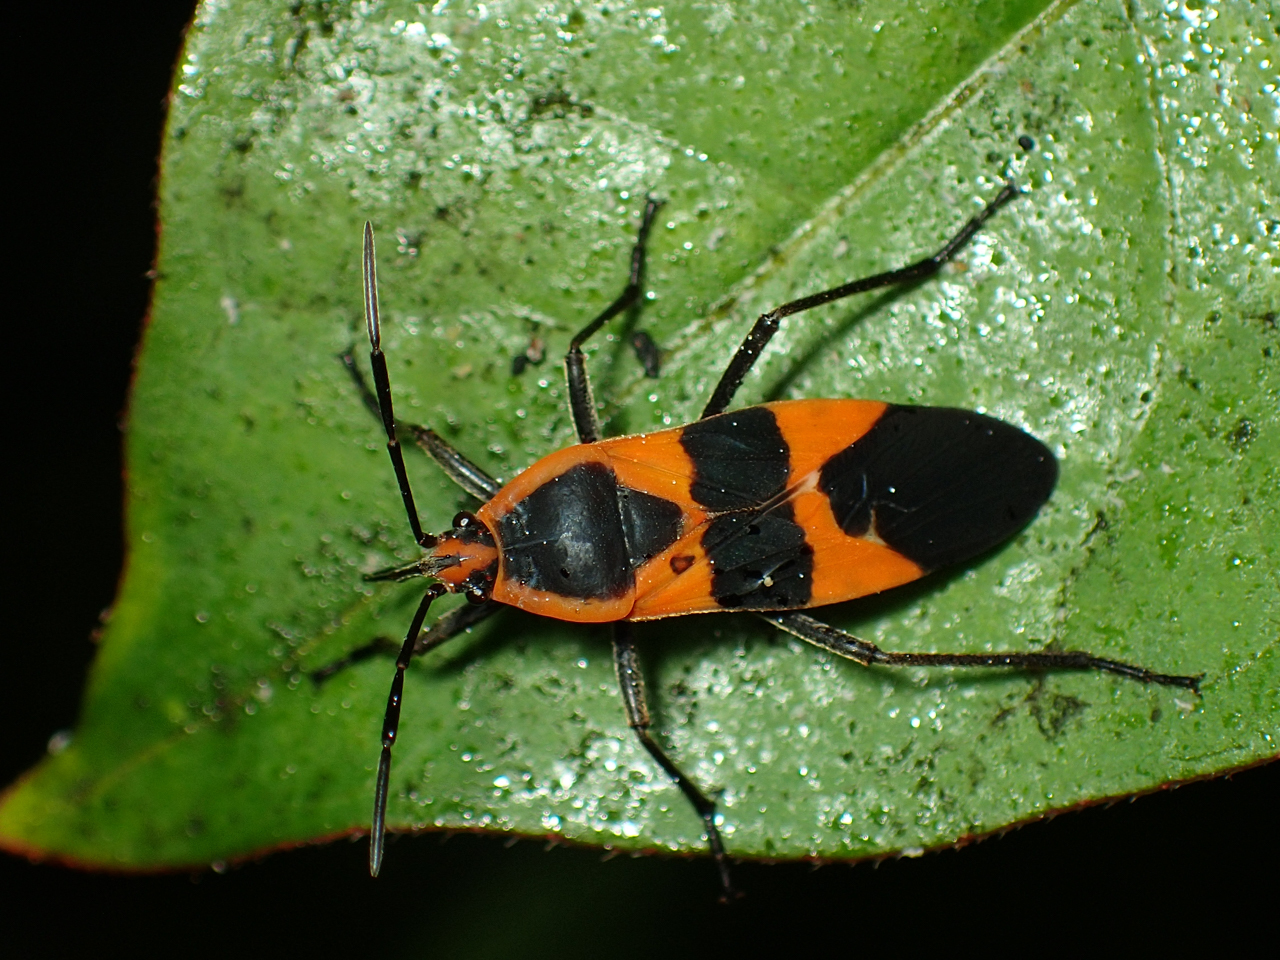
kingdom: Animalia
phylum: Arthropoda
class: Insecta
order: Hemiptera
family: Lygaeidae
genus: Oncopeltus
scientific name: Oncopeltus fasciatus
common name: Large milkweed bug
